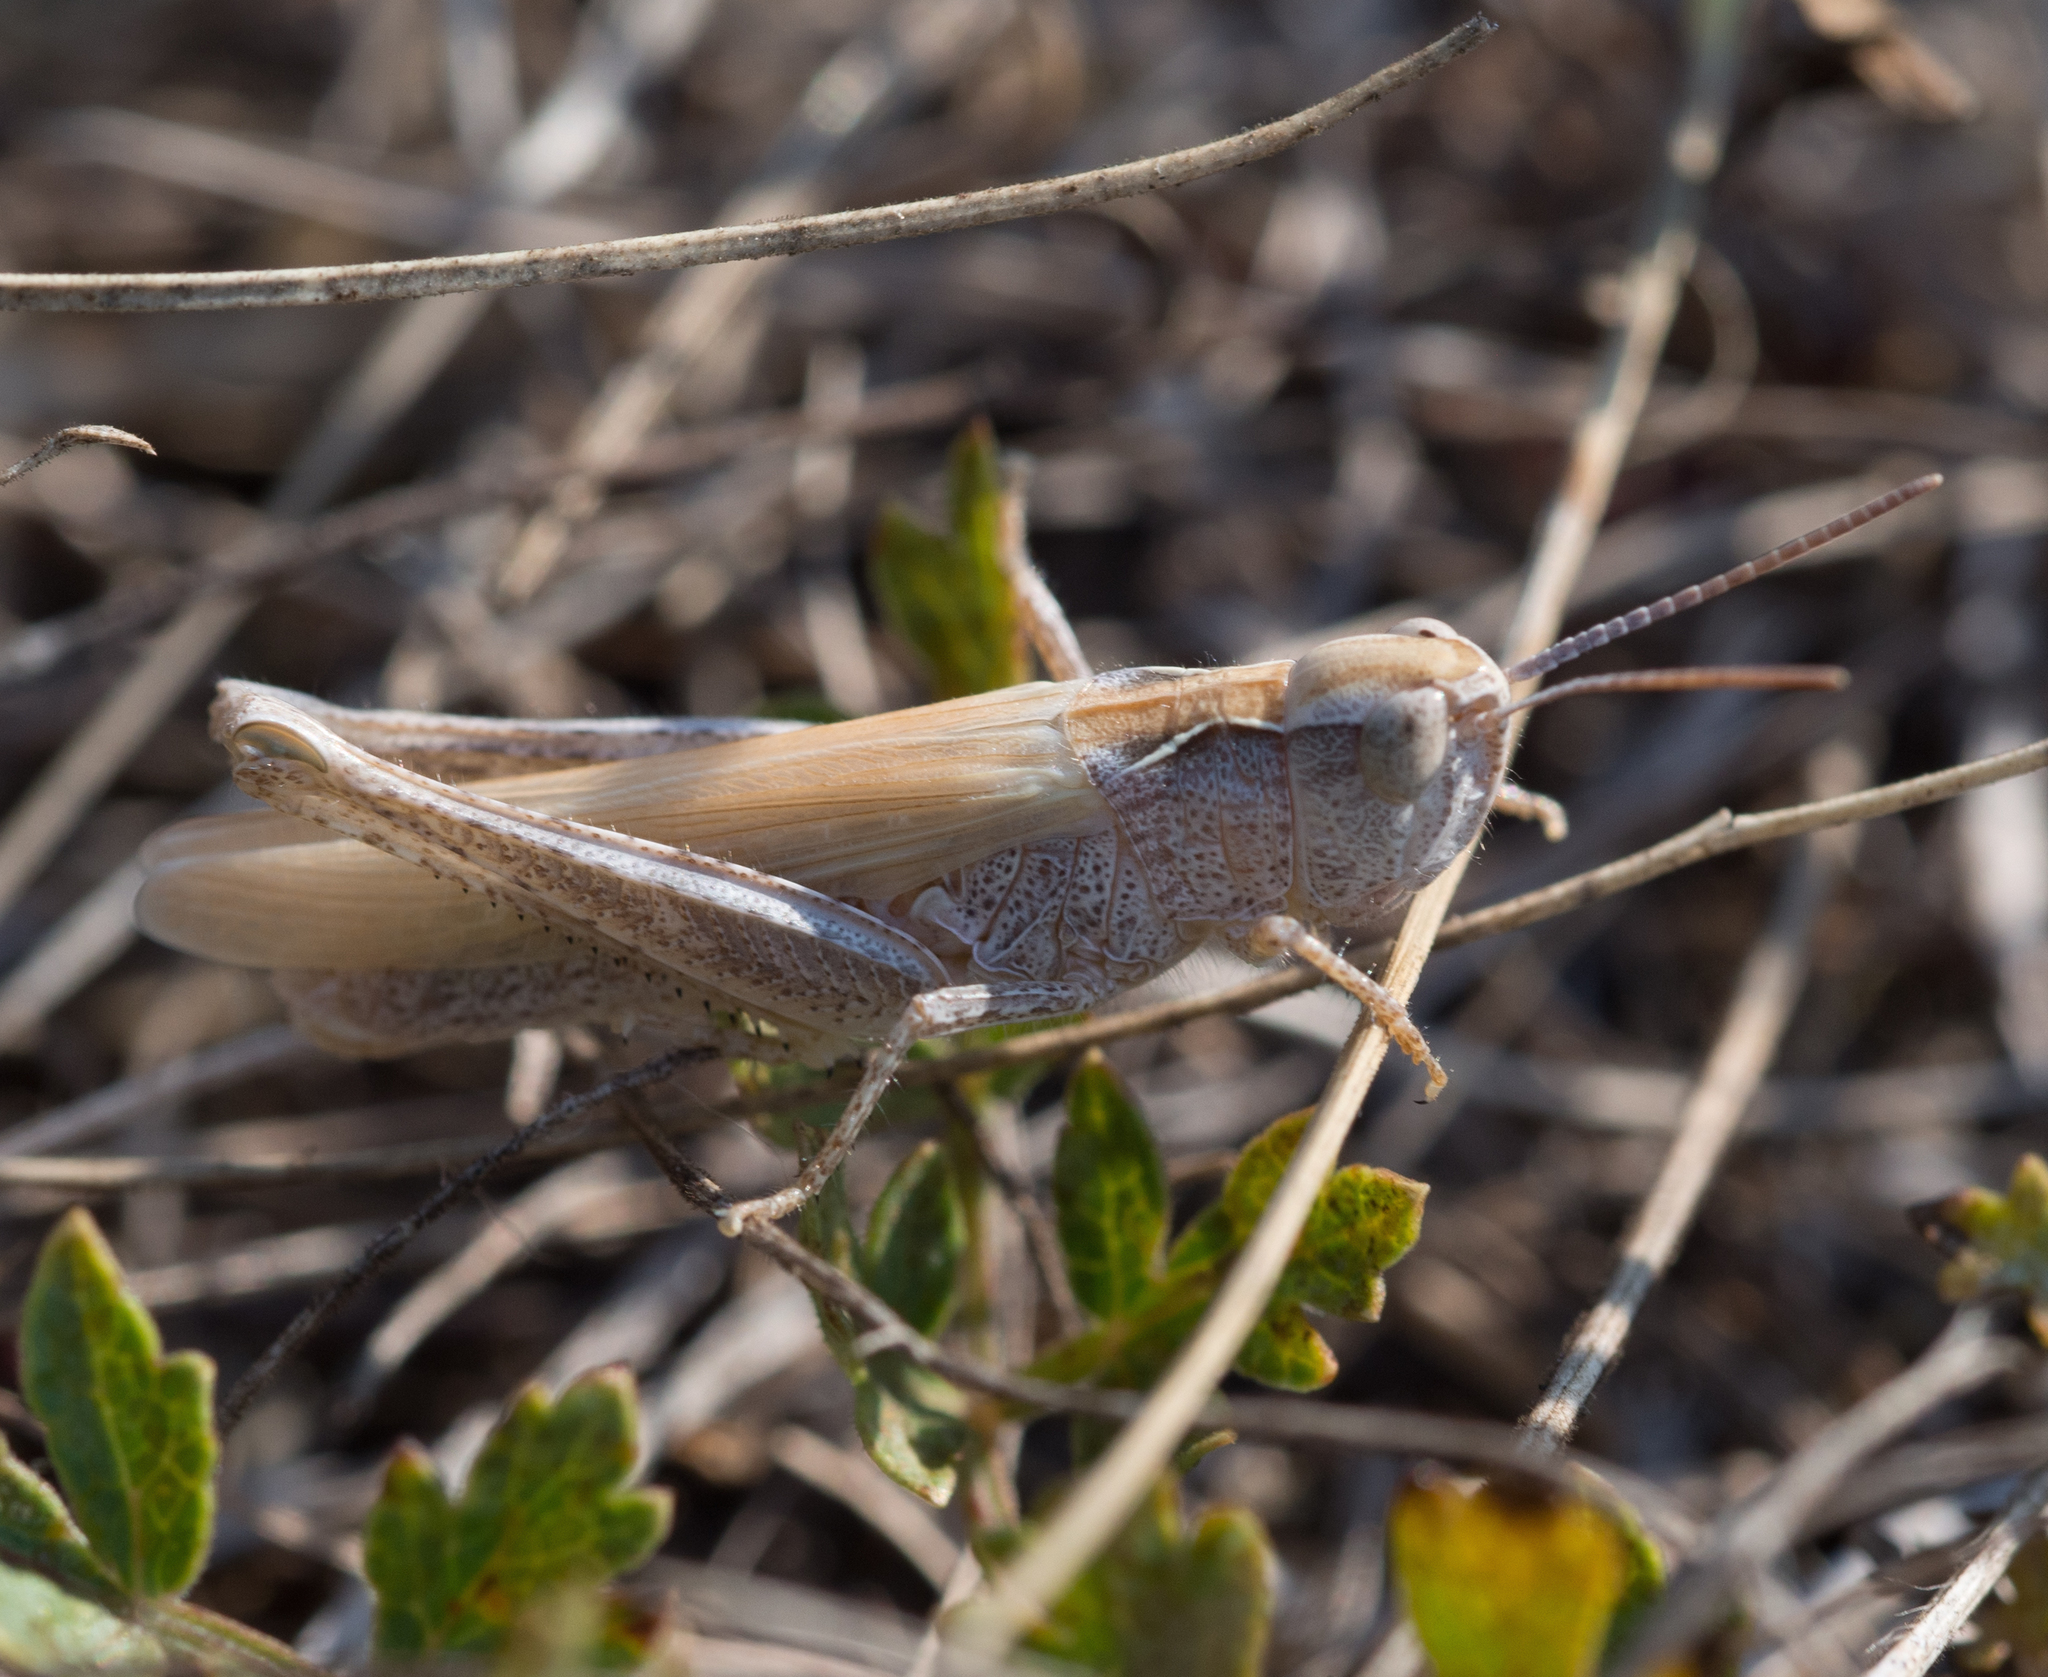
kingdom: Animalia
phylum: Arthropoda
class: Insecta
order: Orthoptera
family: Acrididae
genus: Glyptobothrus
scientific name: Glyptobothrus
